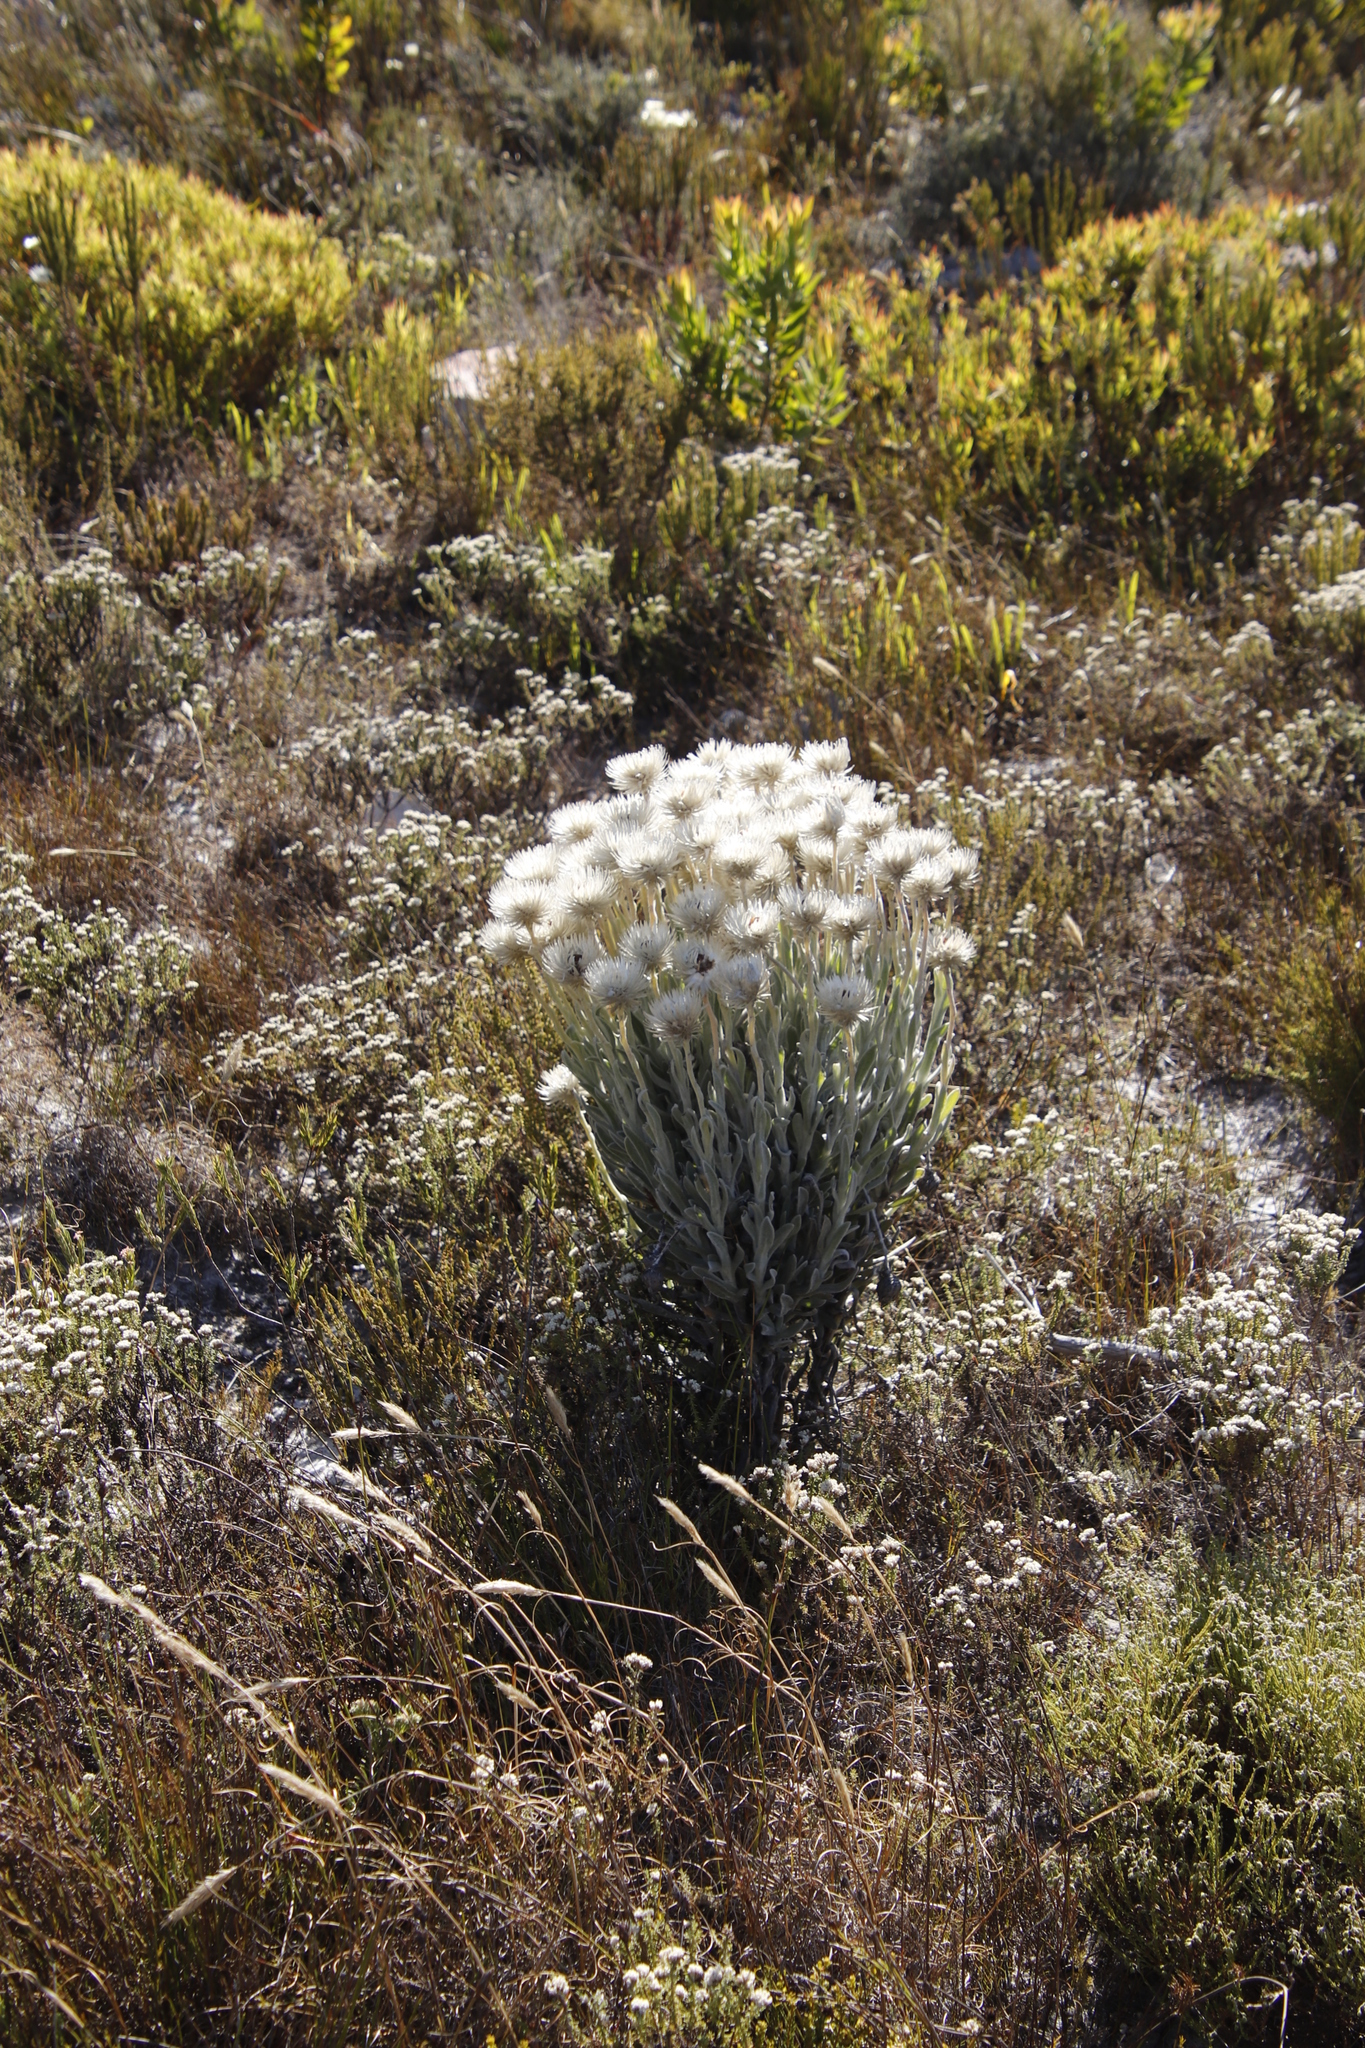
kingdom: Plantae
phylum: Tracheophyta
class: Magnoliopsida
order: Asterales
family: Asteraceae
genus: Syncarpha
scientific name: Syncarpha vestita
